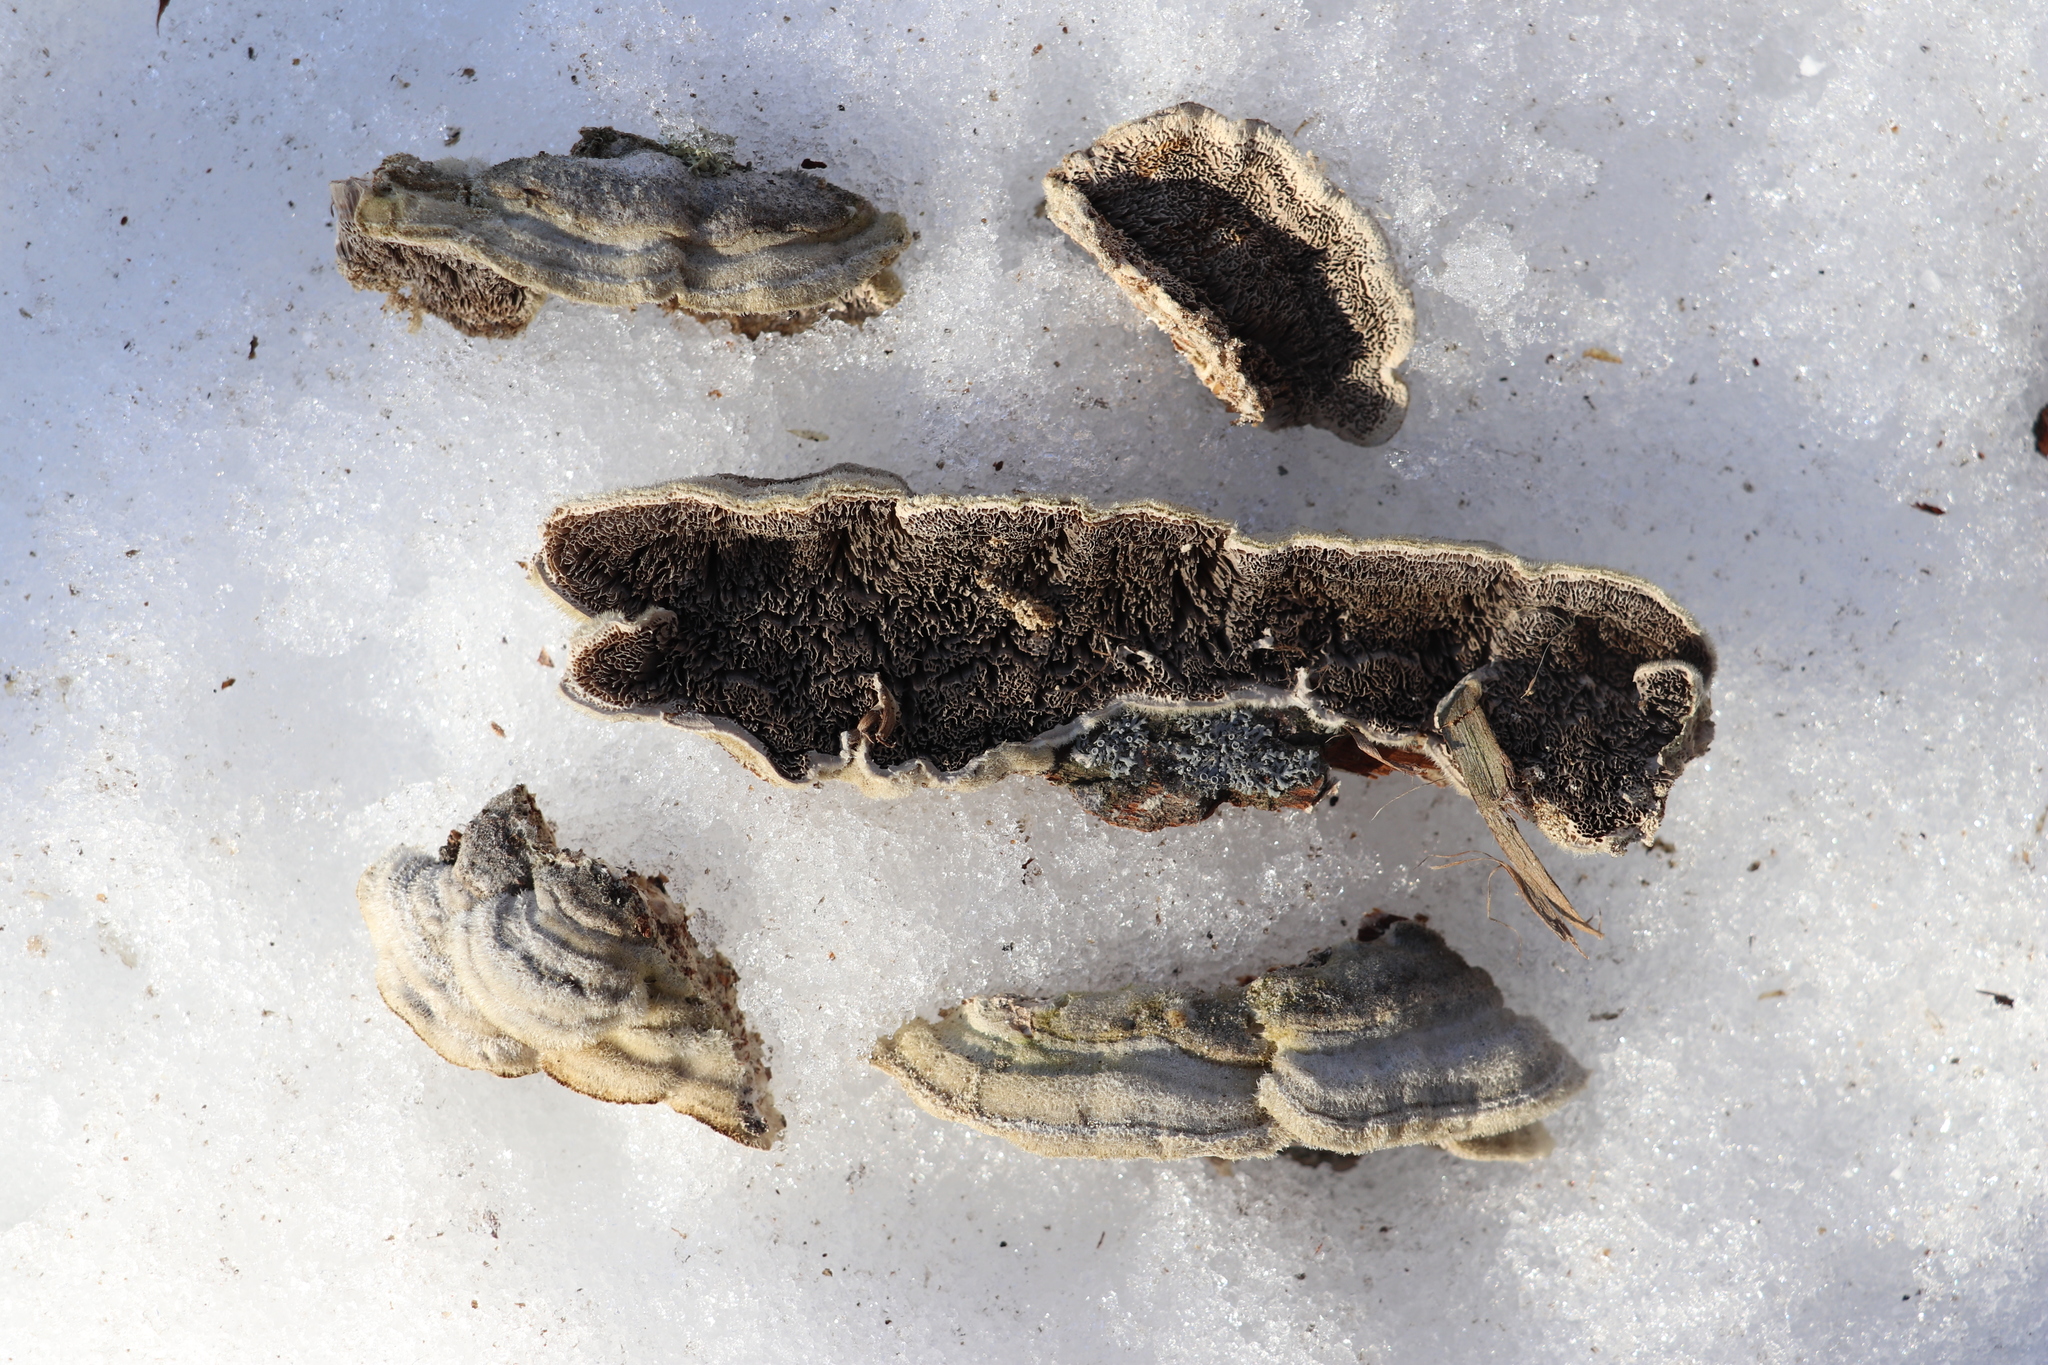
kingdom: Fungi
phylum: Basidiomycota
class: Agaricomycetes
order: Polyporales
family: Cerrenaceae
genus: Cerrena
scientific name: Cerrena unicolor
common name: Mossy maze polypore
